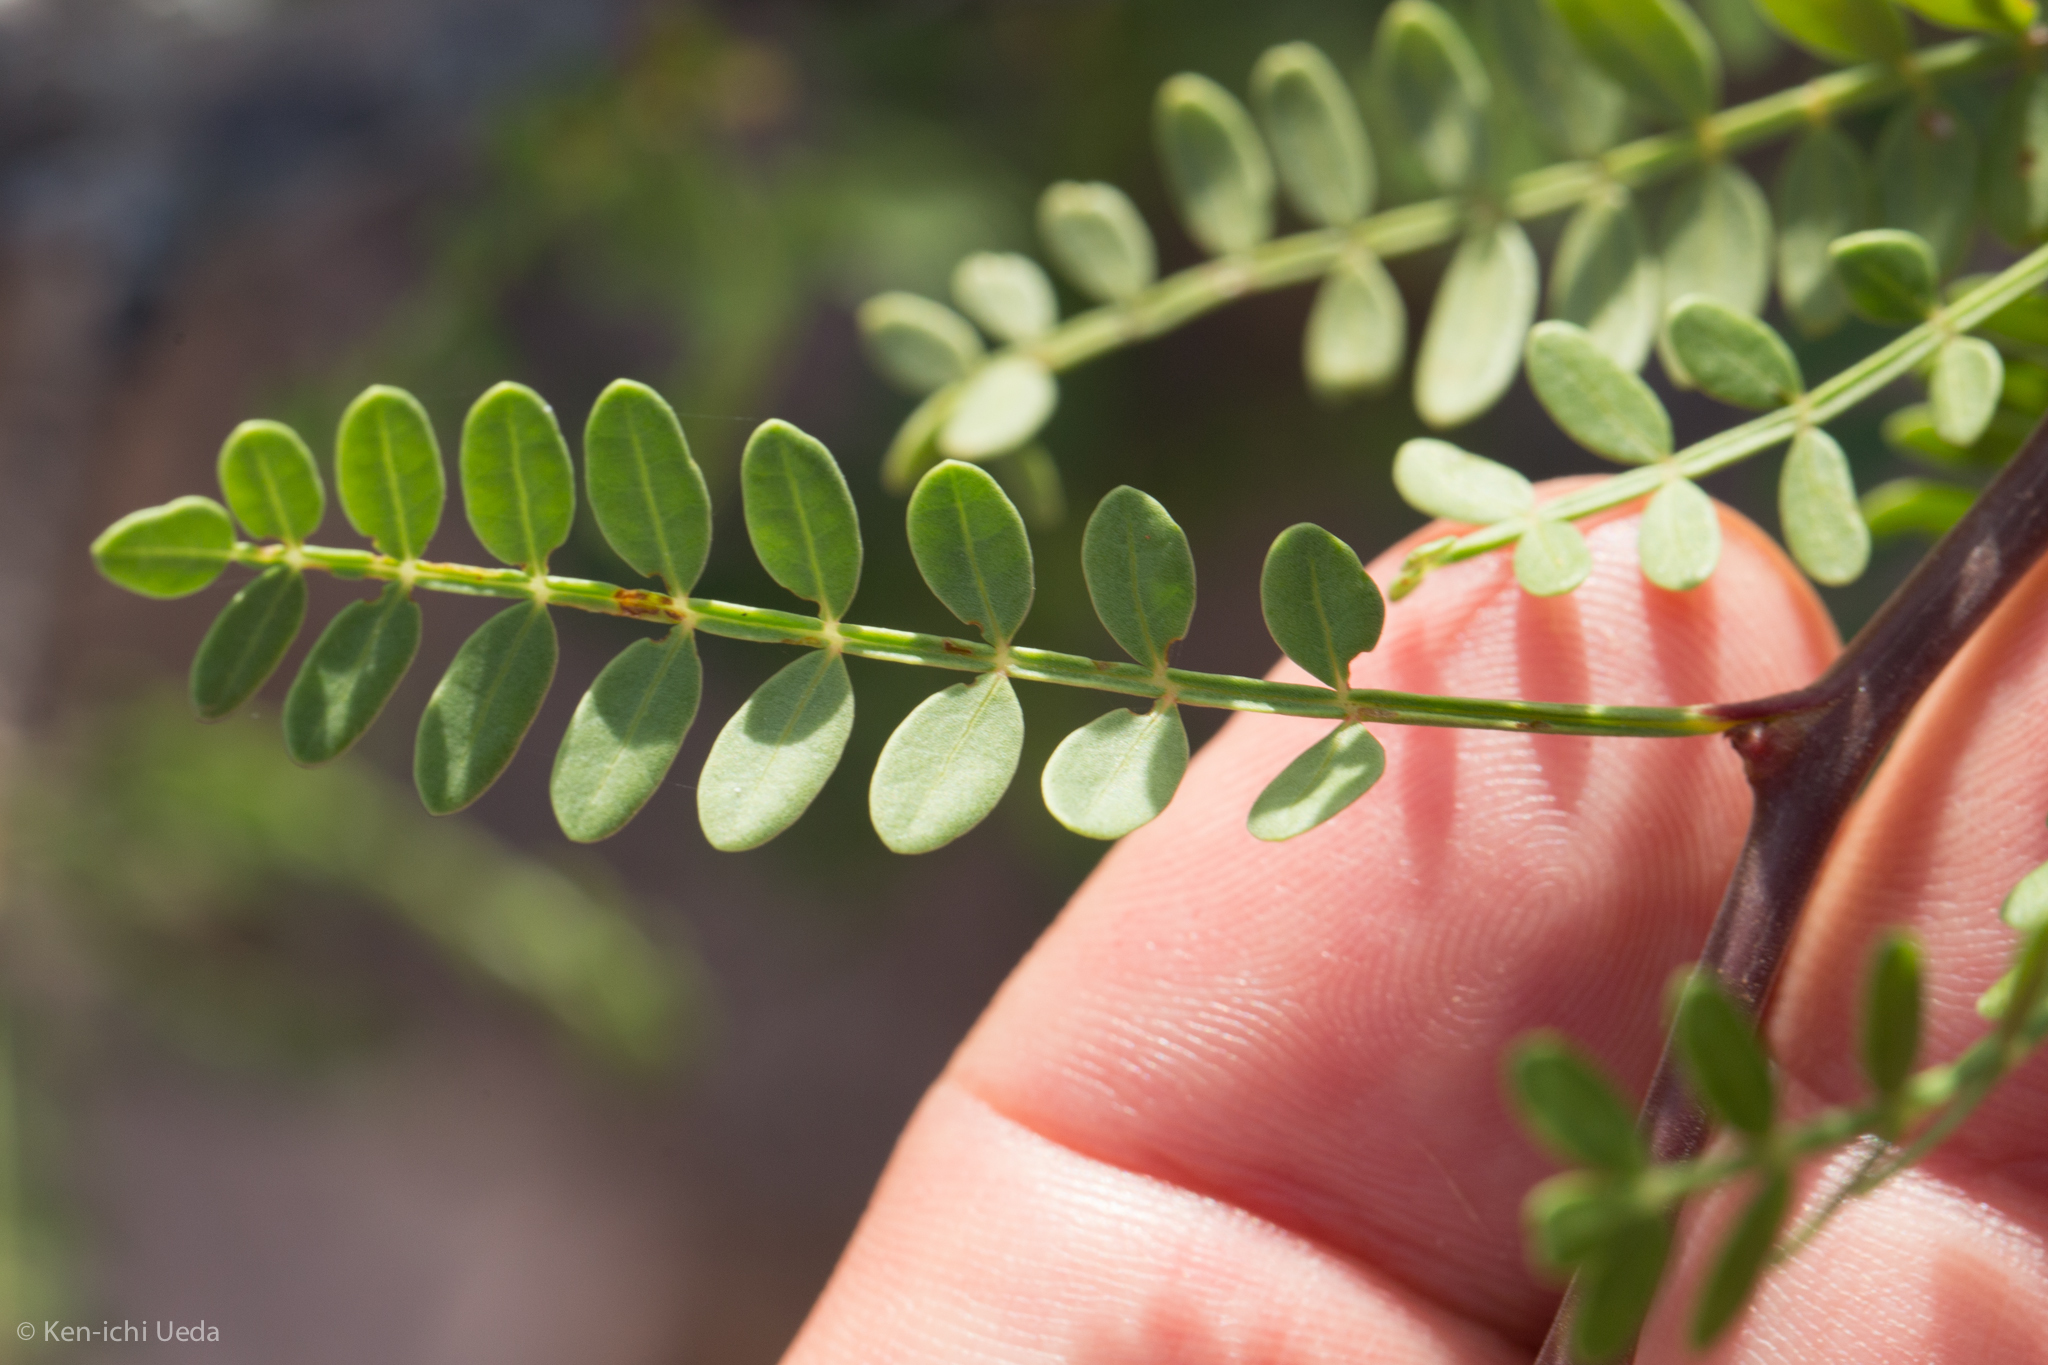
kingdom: Plantae
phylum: Tracheophyta
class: Magnoliopsida
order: Sapindales
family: Burseraceae
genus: Bursera
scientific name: Bursera microphylla
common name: Elephant tree
